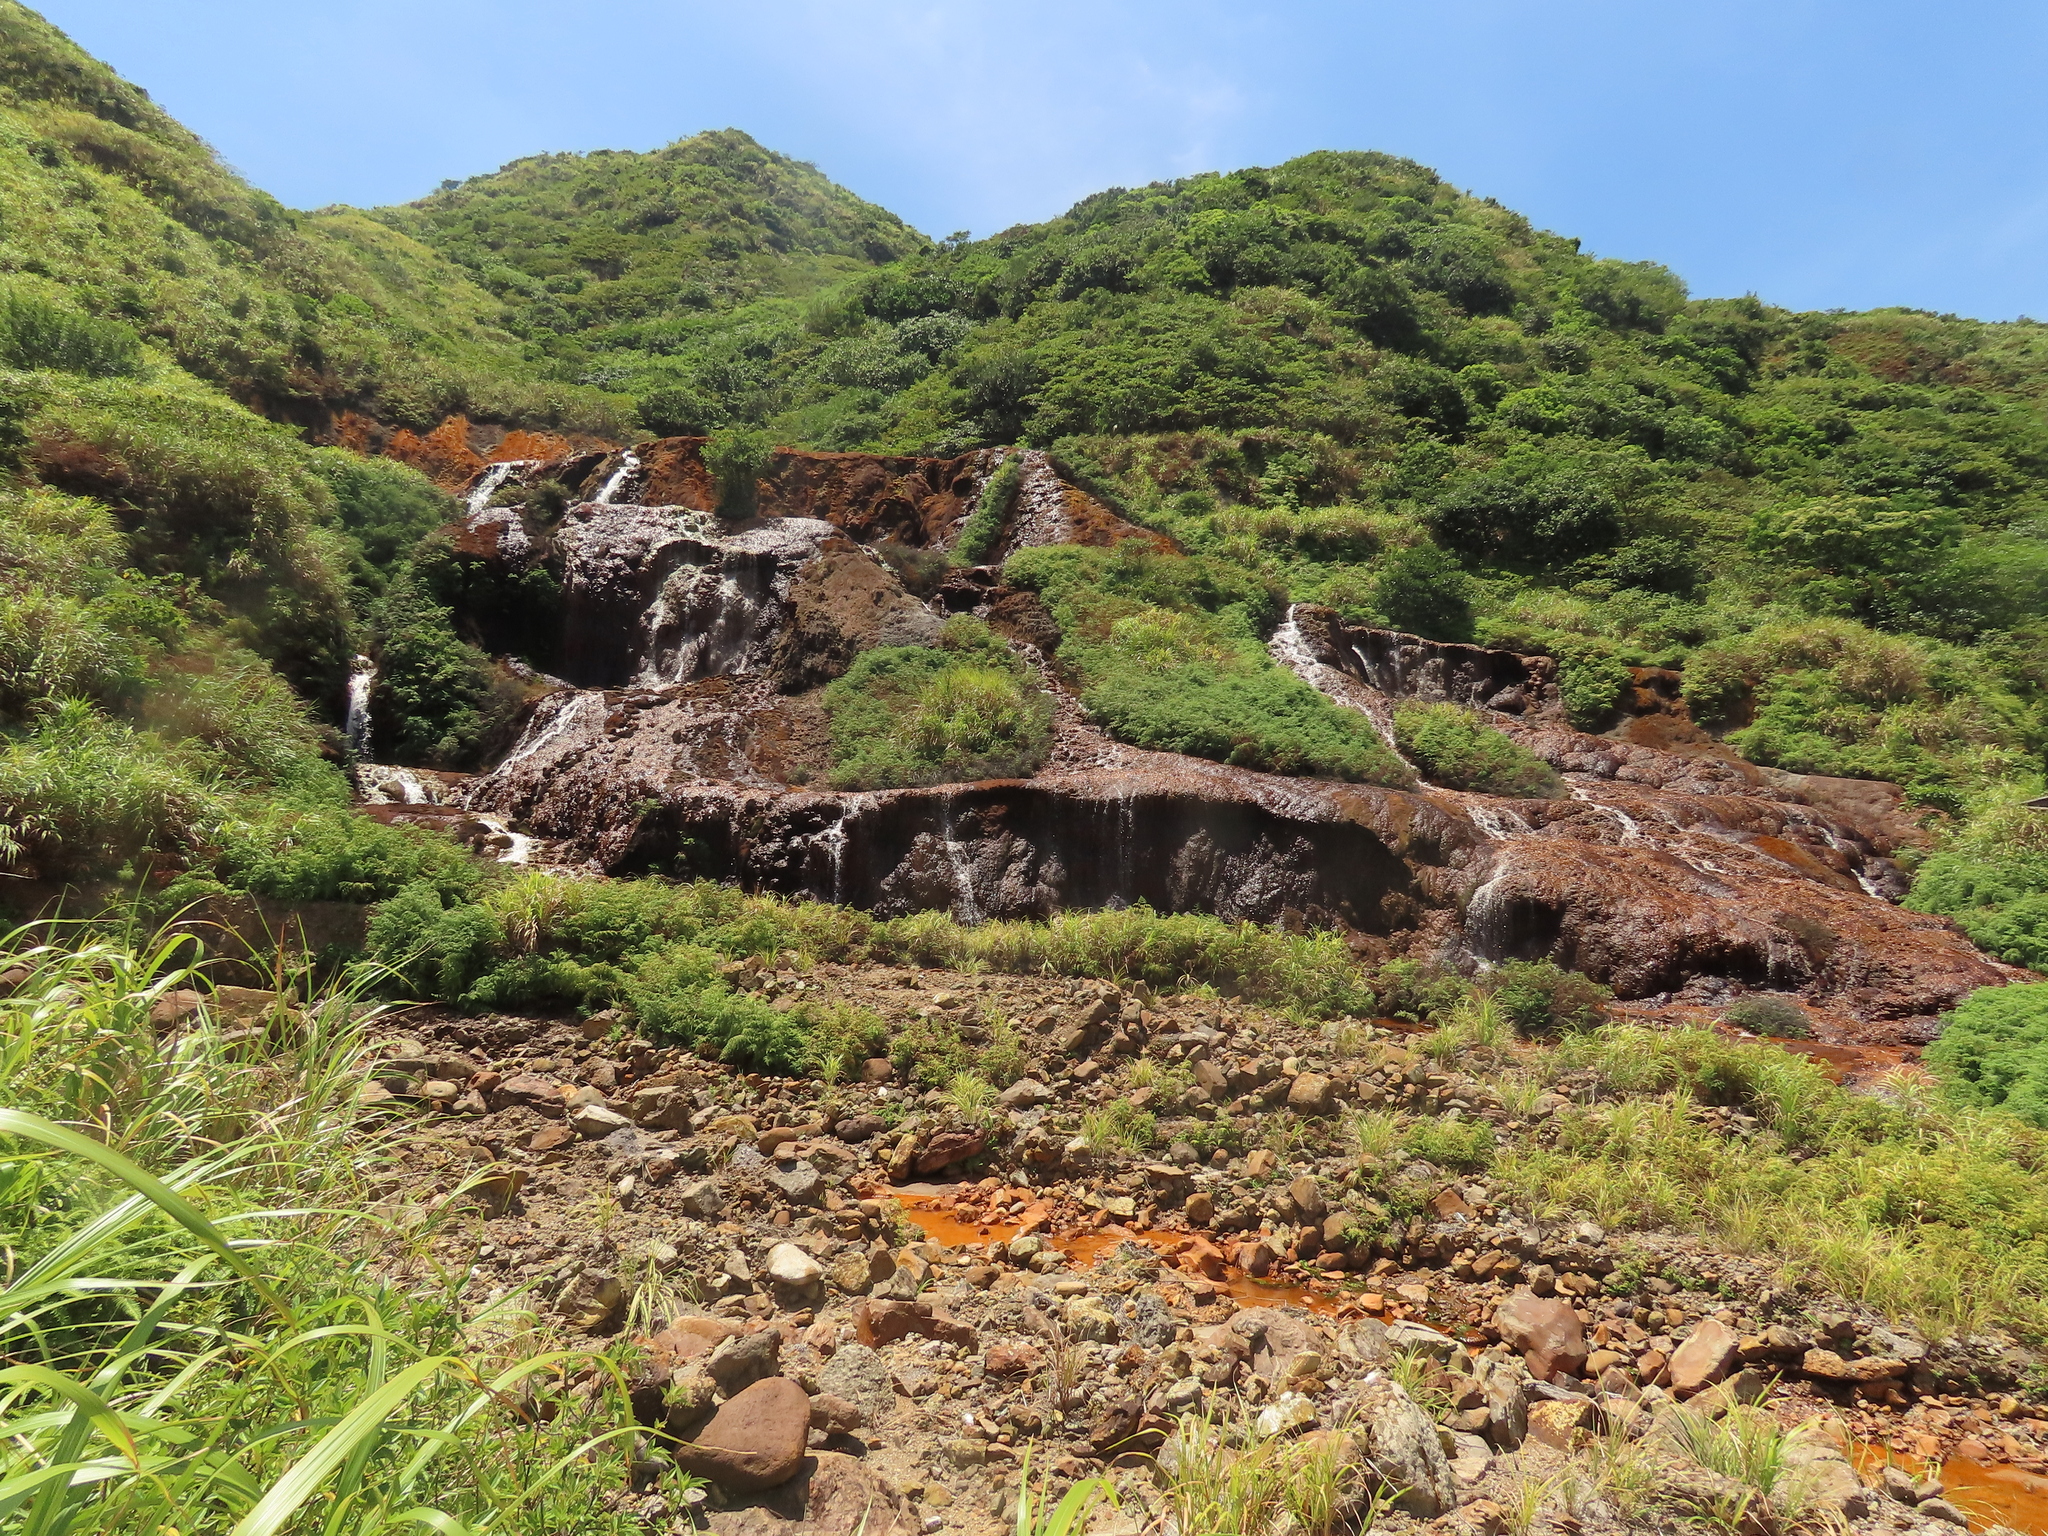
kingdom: Plantae
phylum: Tracheophyta
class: Polypodiopsida
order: Polypodiales
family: Dennstaedtiaceae
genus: Histiopteris
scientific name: Histiopteris incisa
